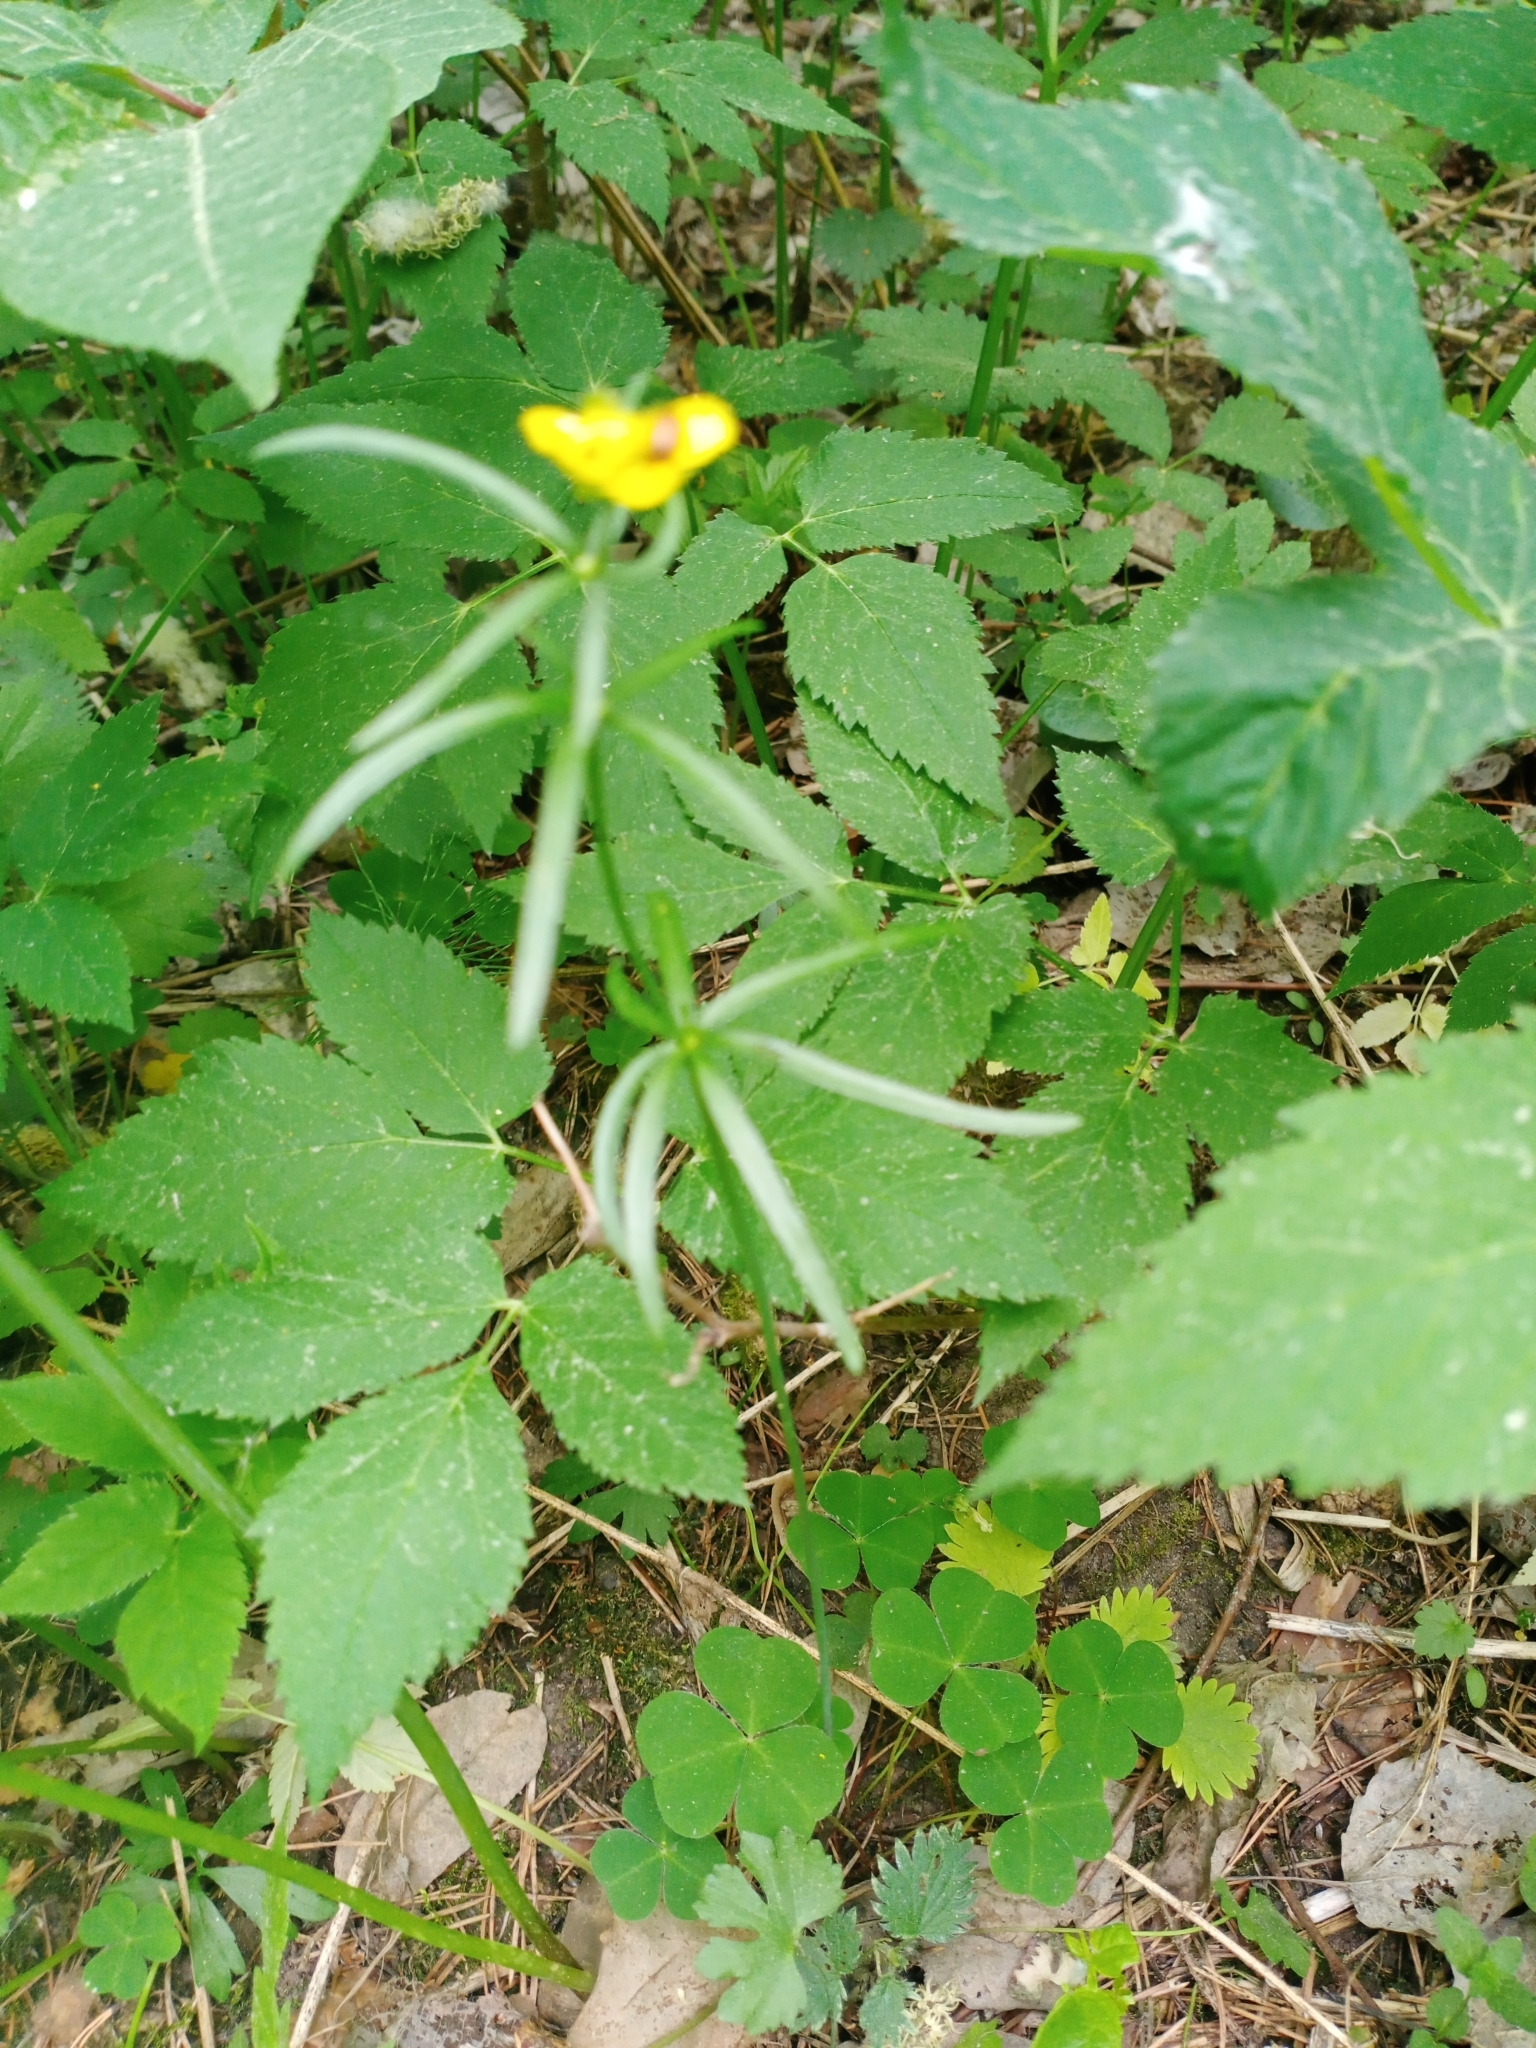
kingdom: Plantae
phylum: Tracheophyta
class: Magnoliopsida
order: Ranunculales
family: Ranunculaceae
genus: Ranunculus
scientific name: Ranunculus auricomus
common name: Goldilocks buttercup
